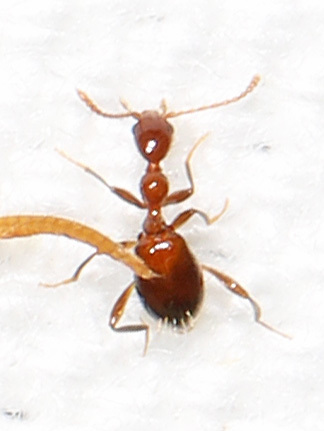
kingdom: Animalia
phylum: Arthropoda
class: Insecta
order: Coleoptera
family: Anthicidae
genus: Acanthinus
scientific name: Acanthinus
